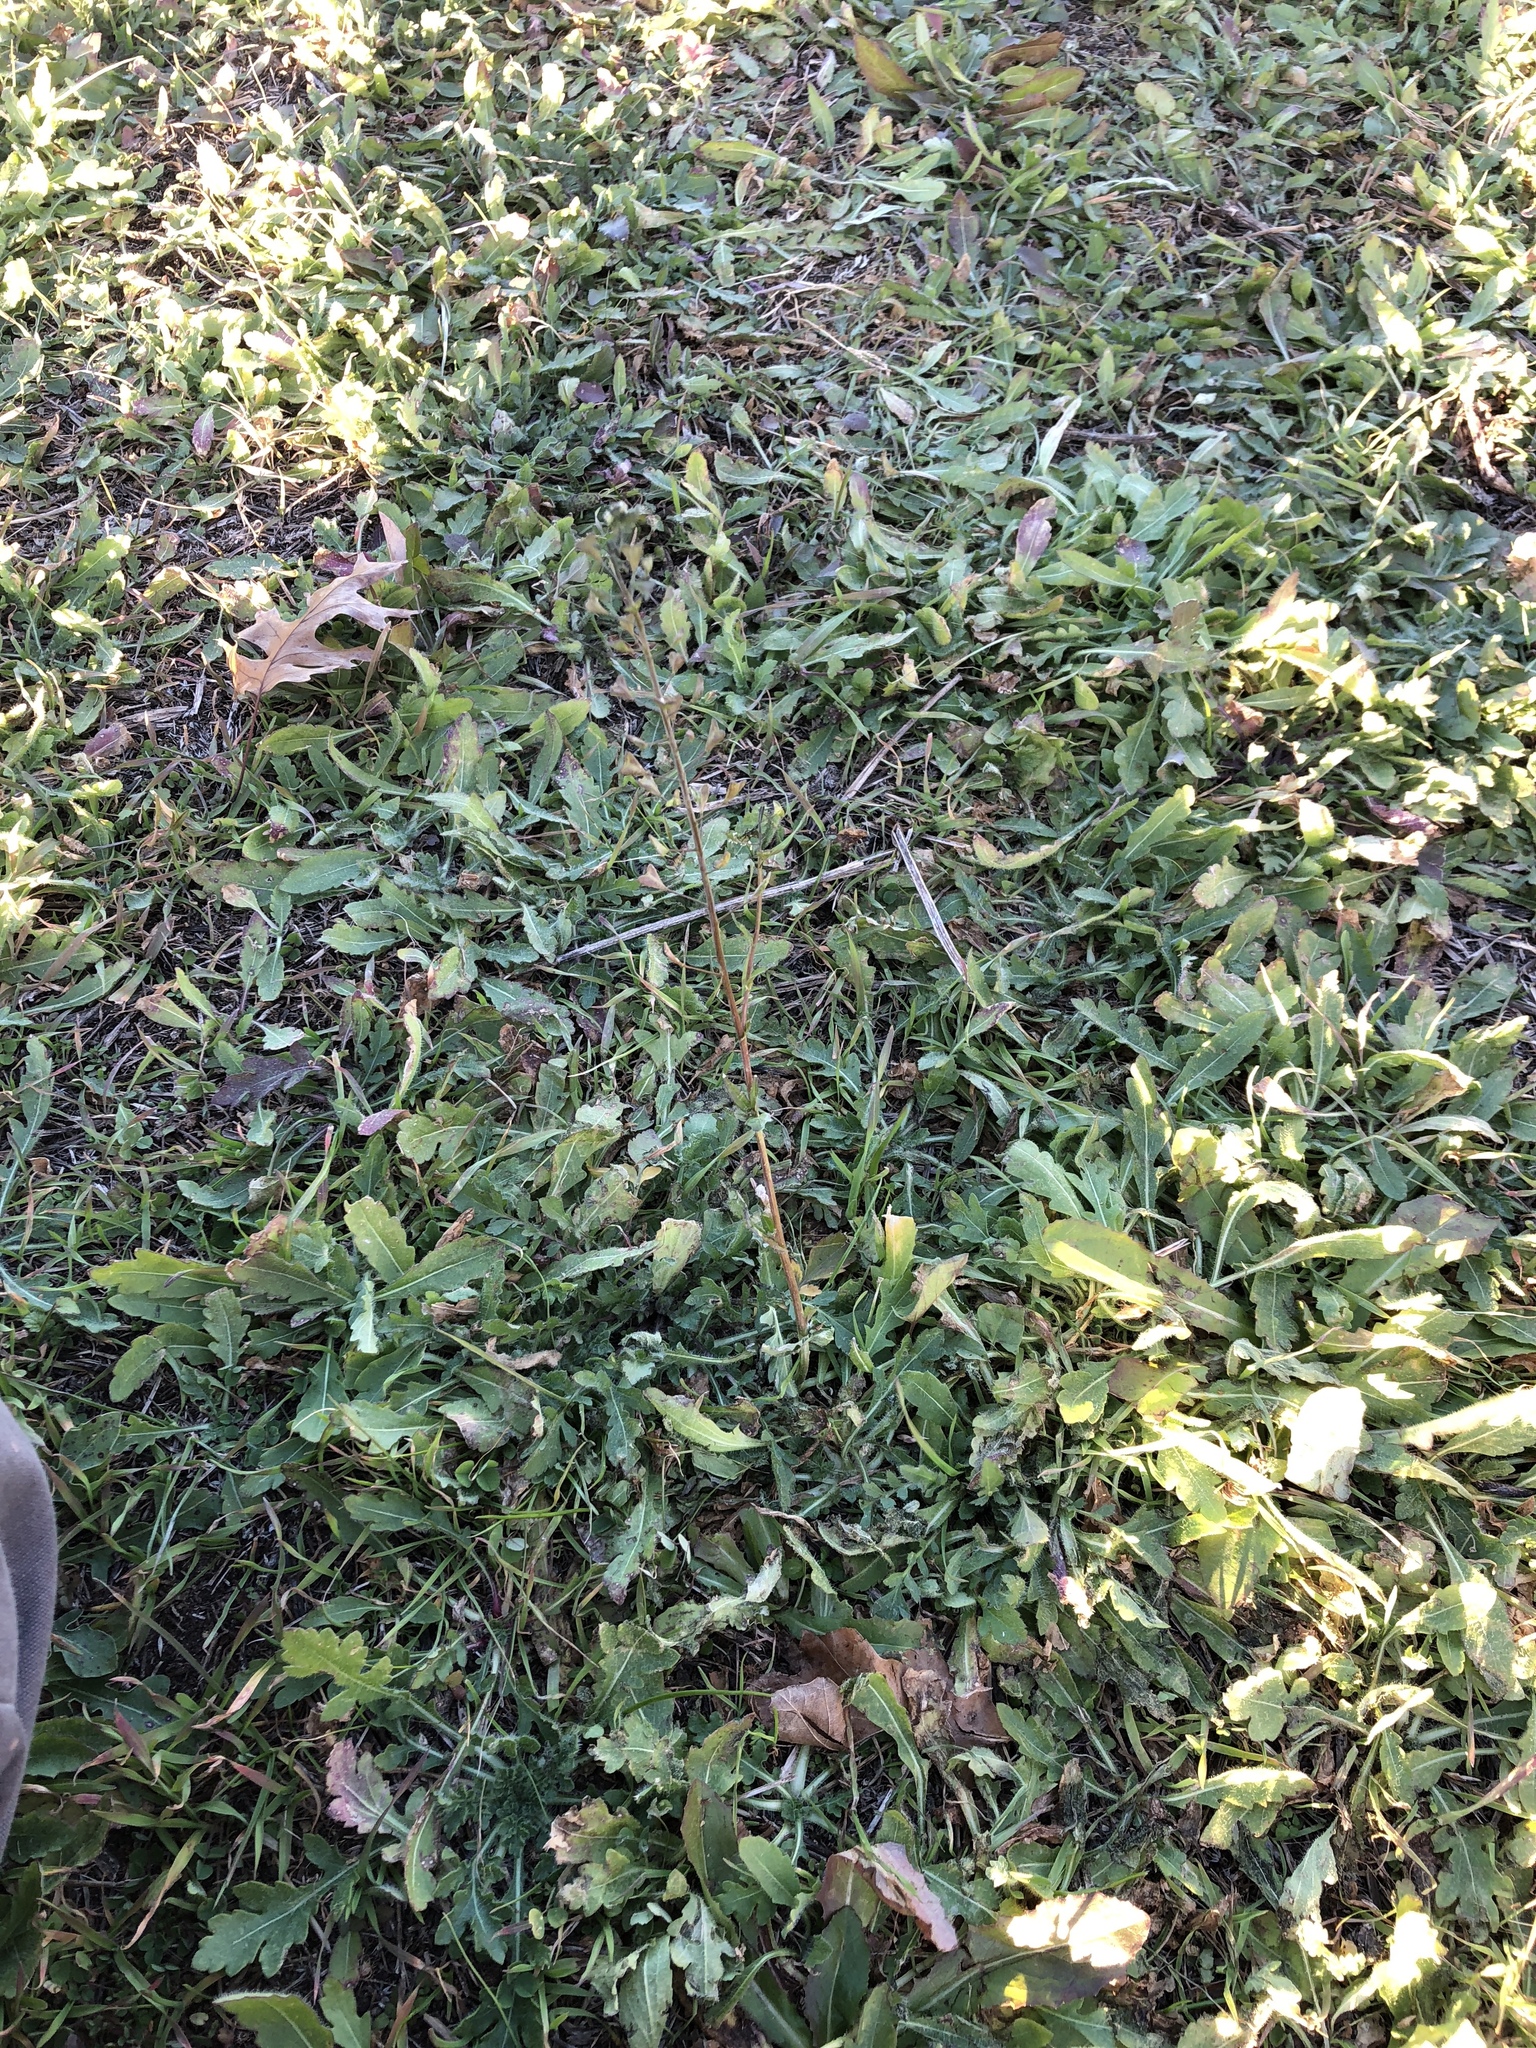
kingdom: Plantae
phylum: Tracheophyta
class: Magnoliopsida
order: Brassicales
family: Brassicaceae
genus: Capsella
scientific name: Capsella bursa-pastoris
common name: Shepherd's purse
